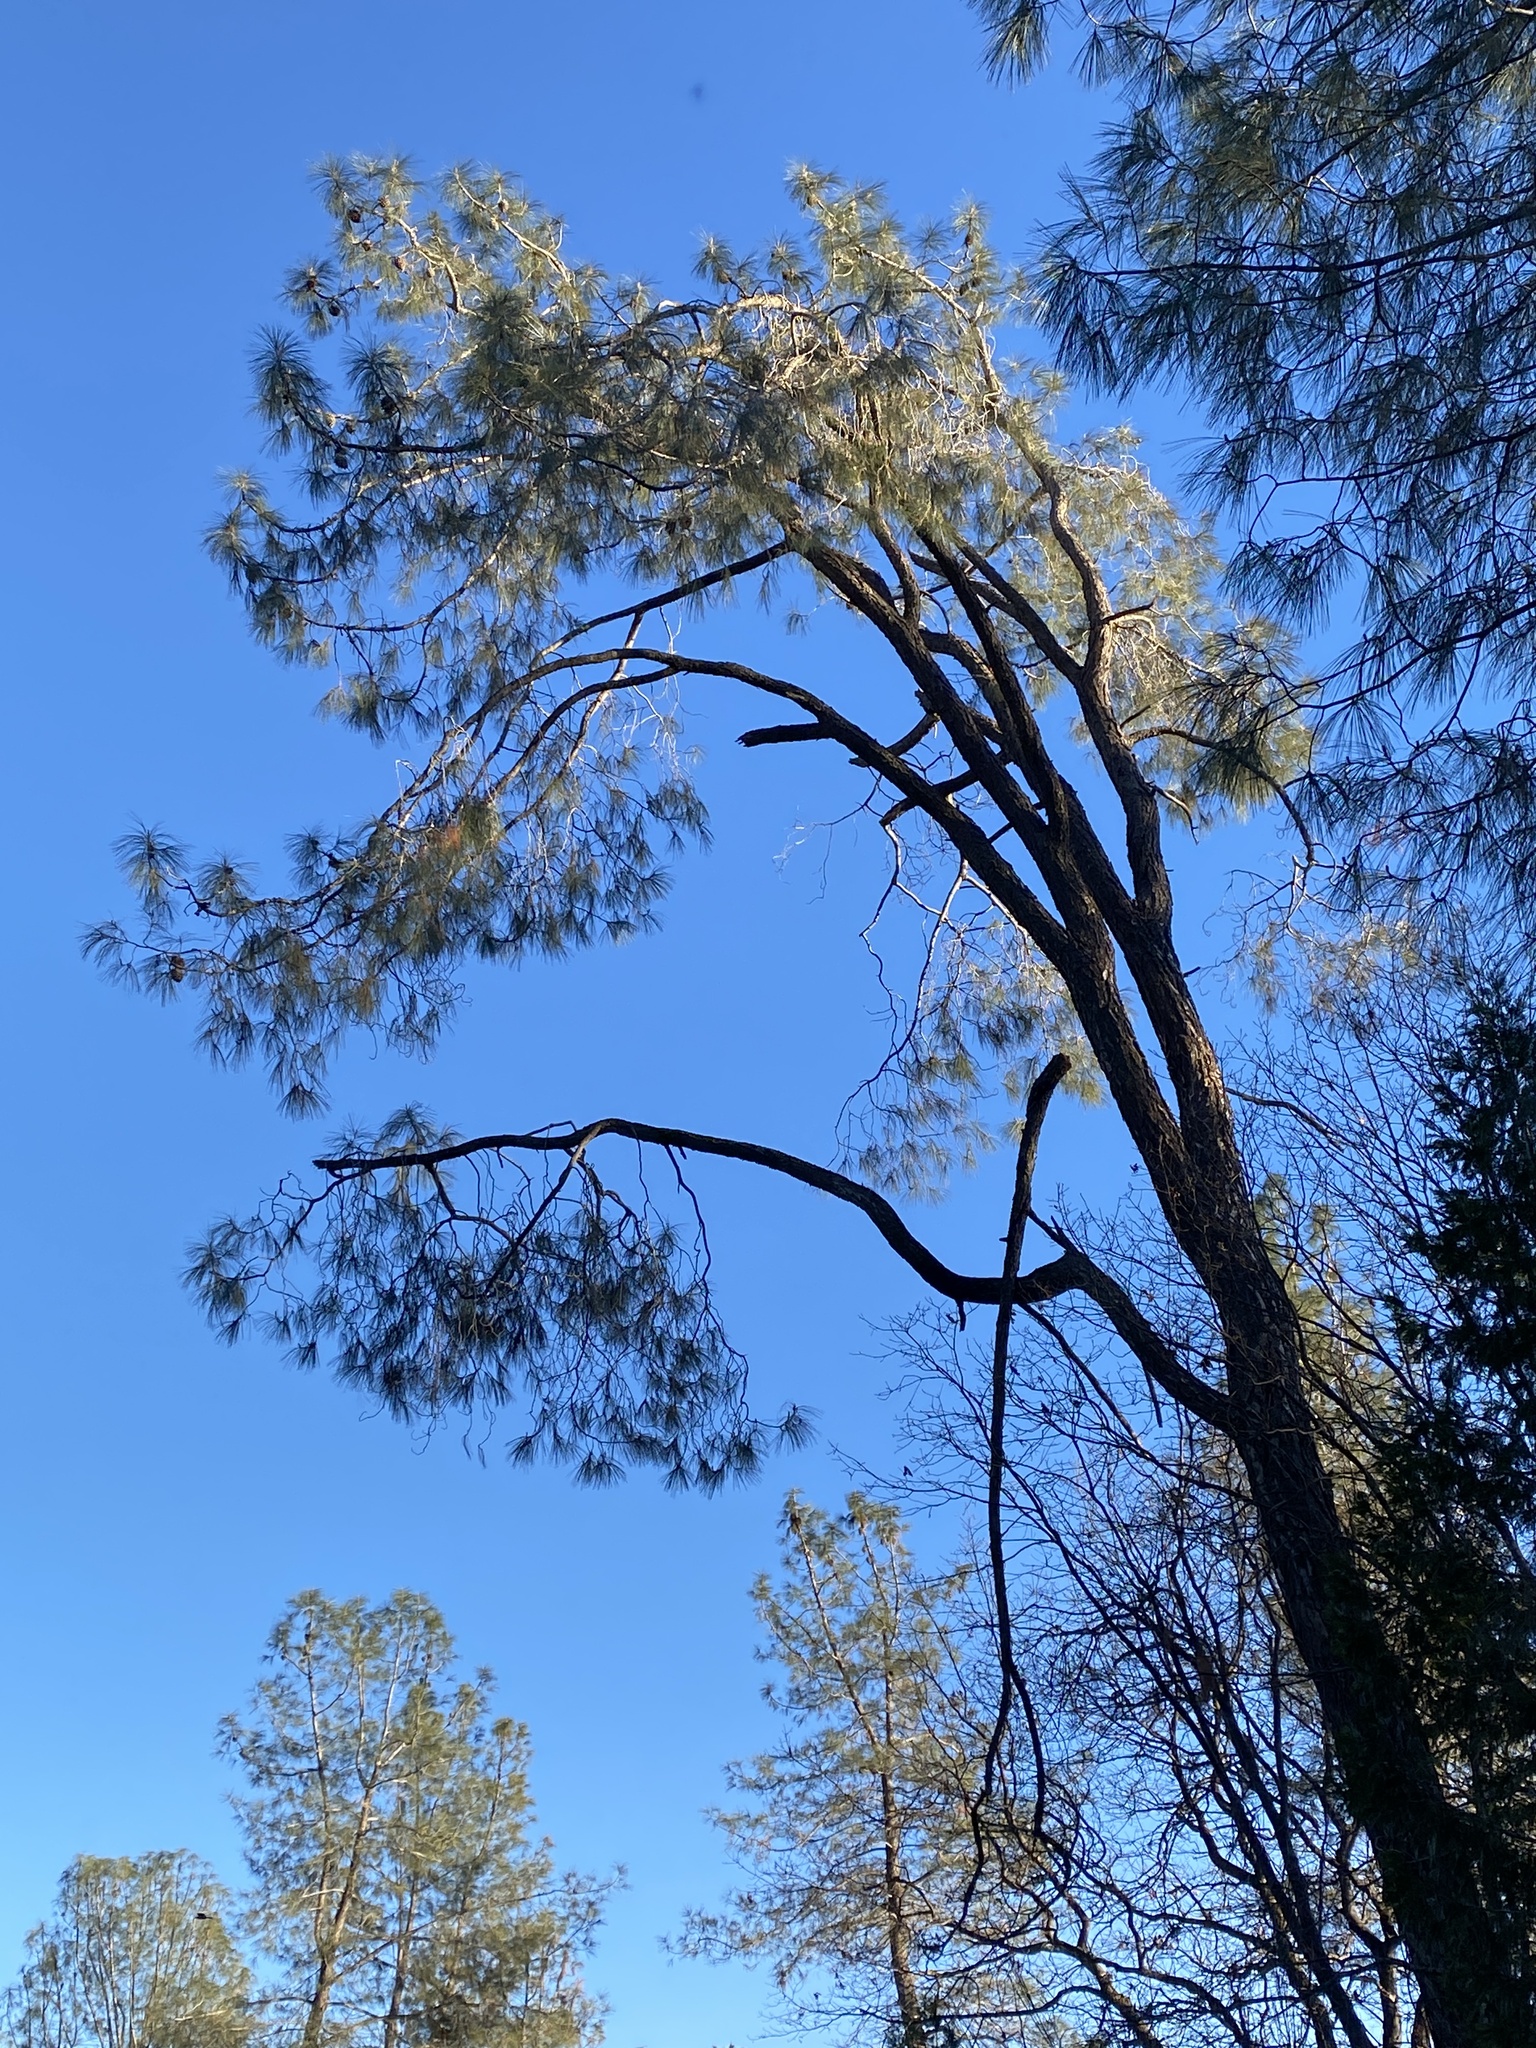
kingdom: Plantae
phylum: Tracheophyta
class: Pinopsida
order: Pinales
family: Pinaceae
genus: Pinus
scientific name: Pinus sabiniana
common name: Bull pine
